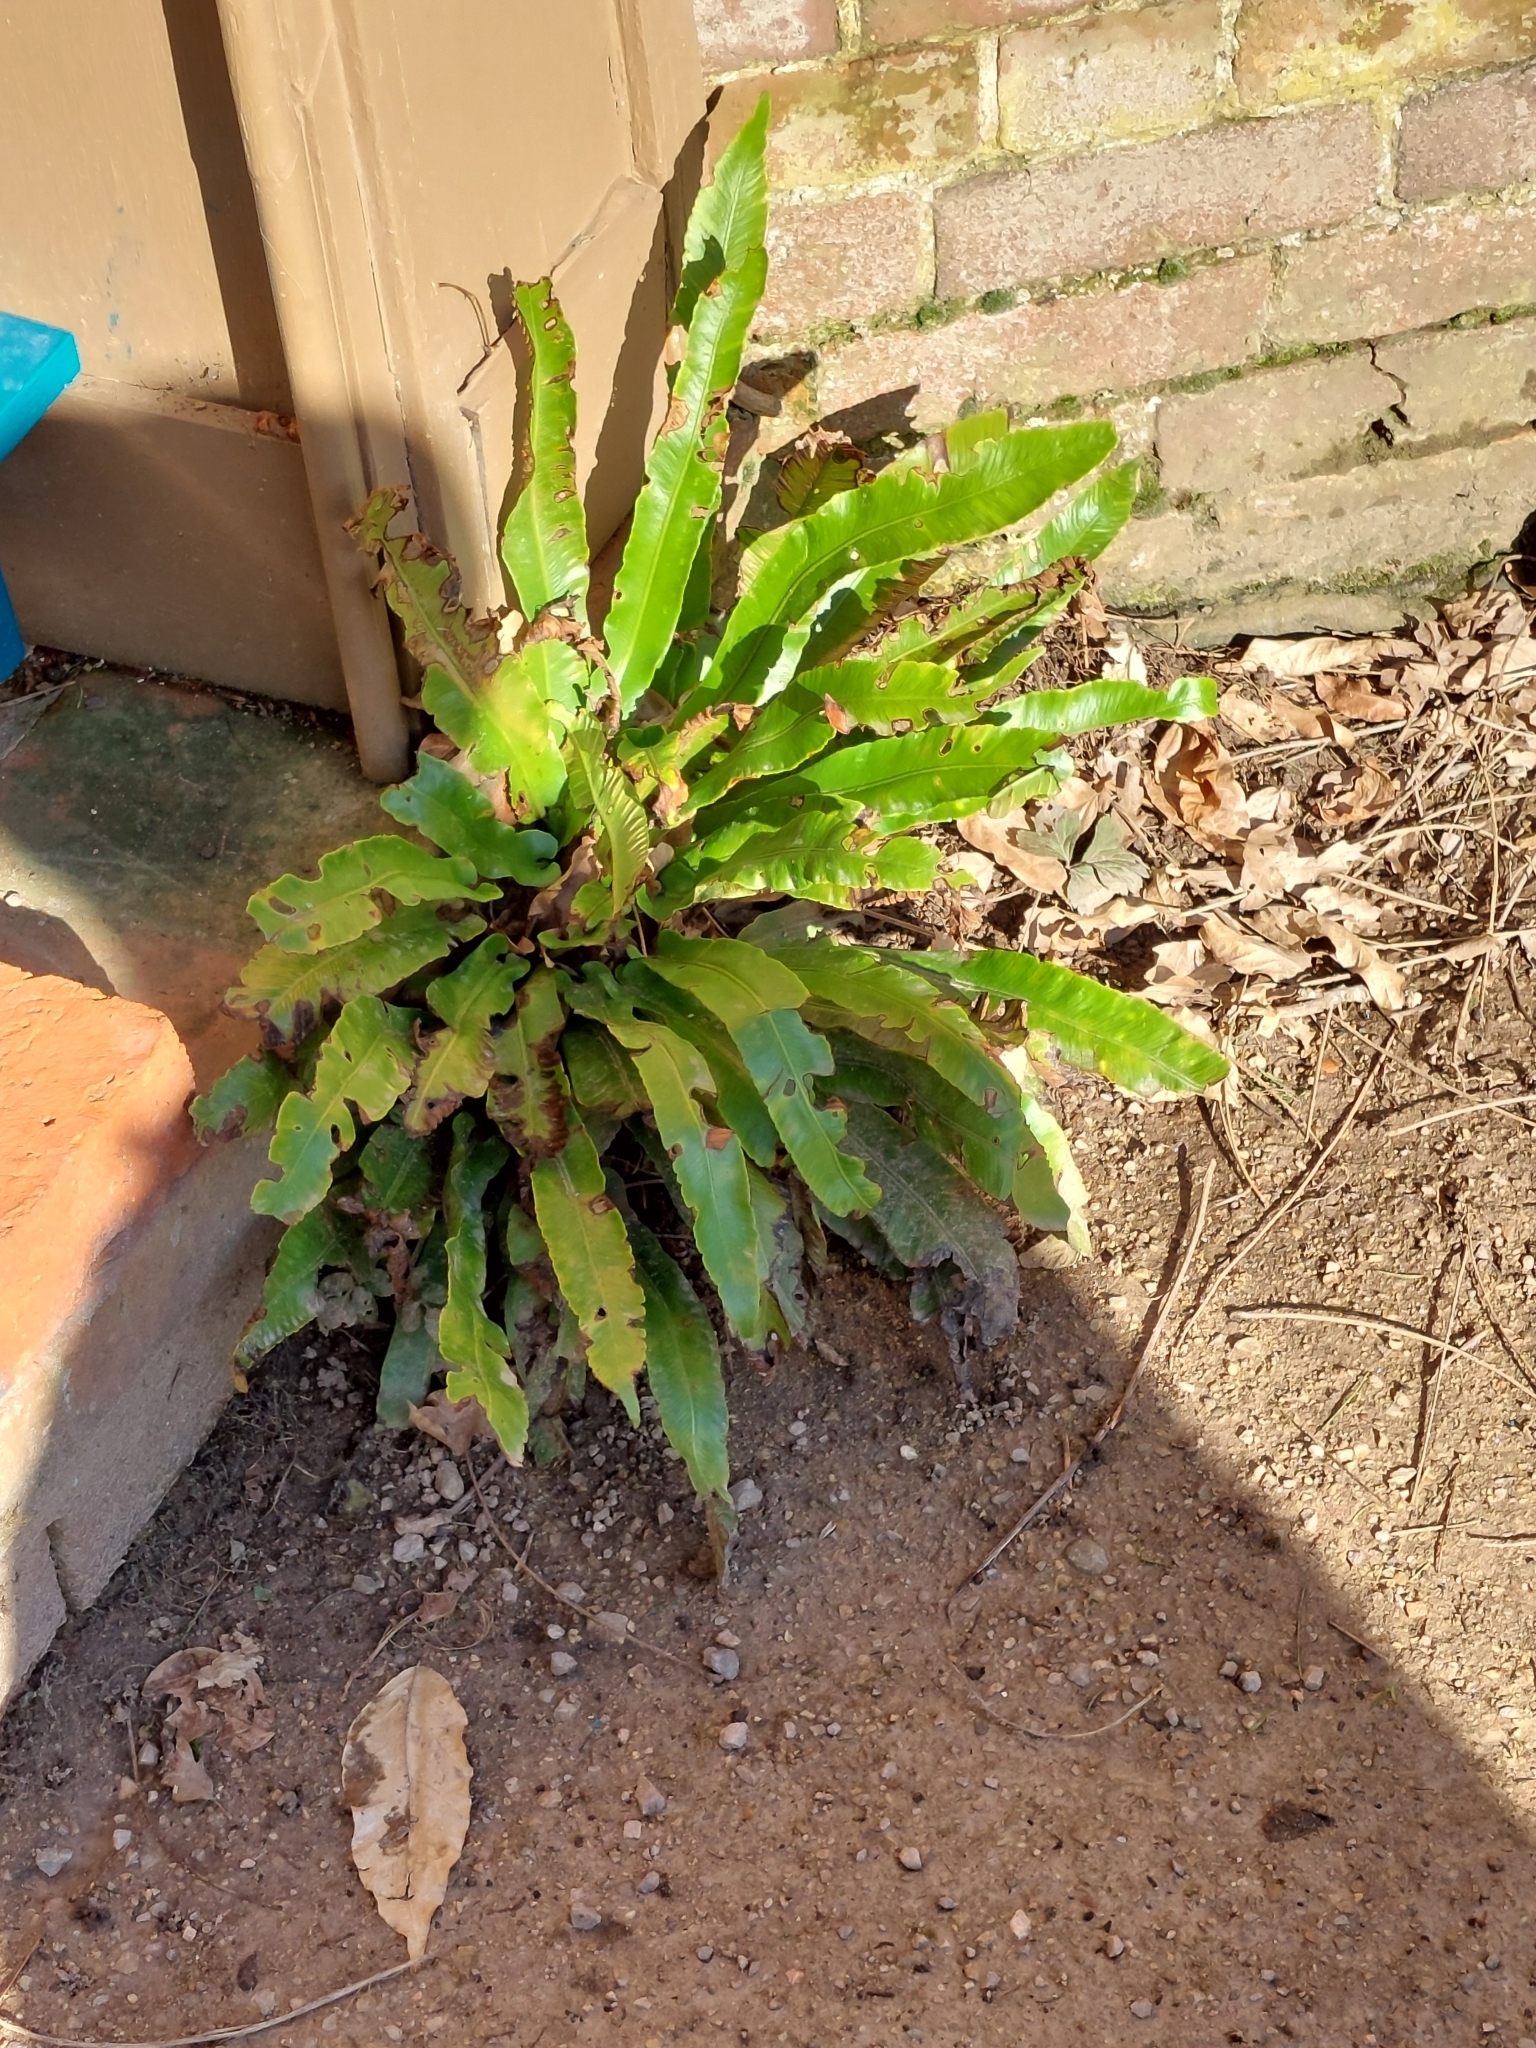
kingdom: Plantae
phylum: Tracheophyta
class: Polypodiopsida
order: Polypodiales
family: Aspleniaceae
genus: Asplenium
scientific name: Asplenium scolopendrium
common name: Hart's-tongue fern
